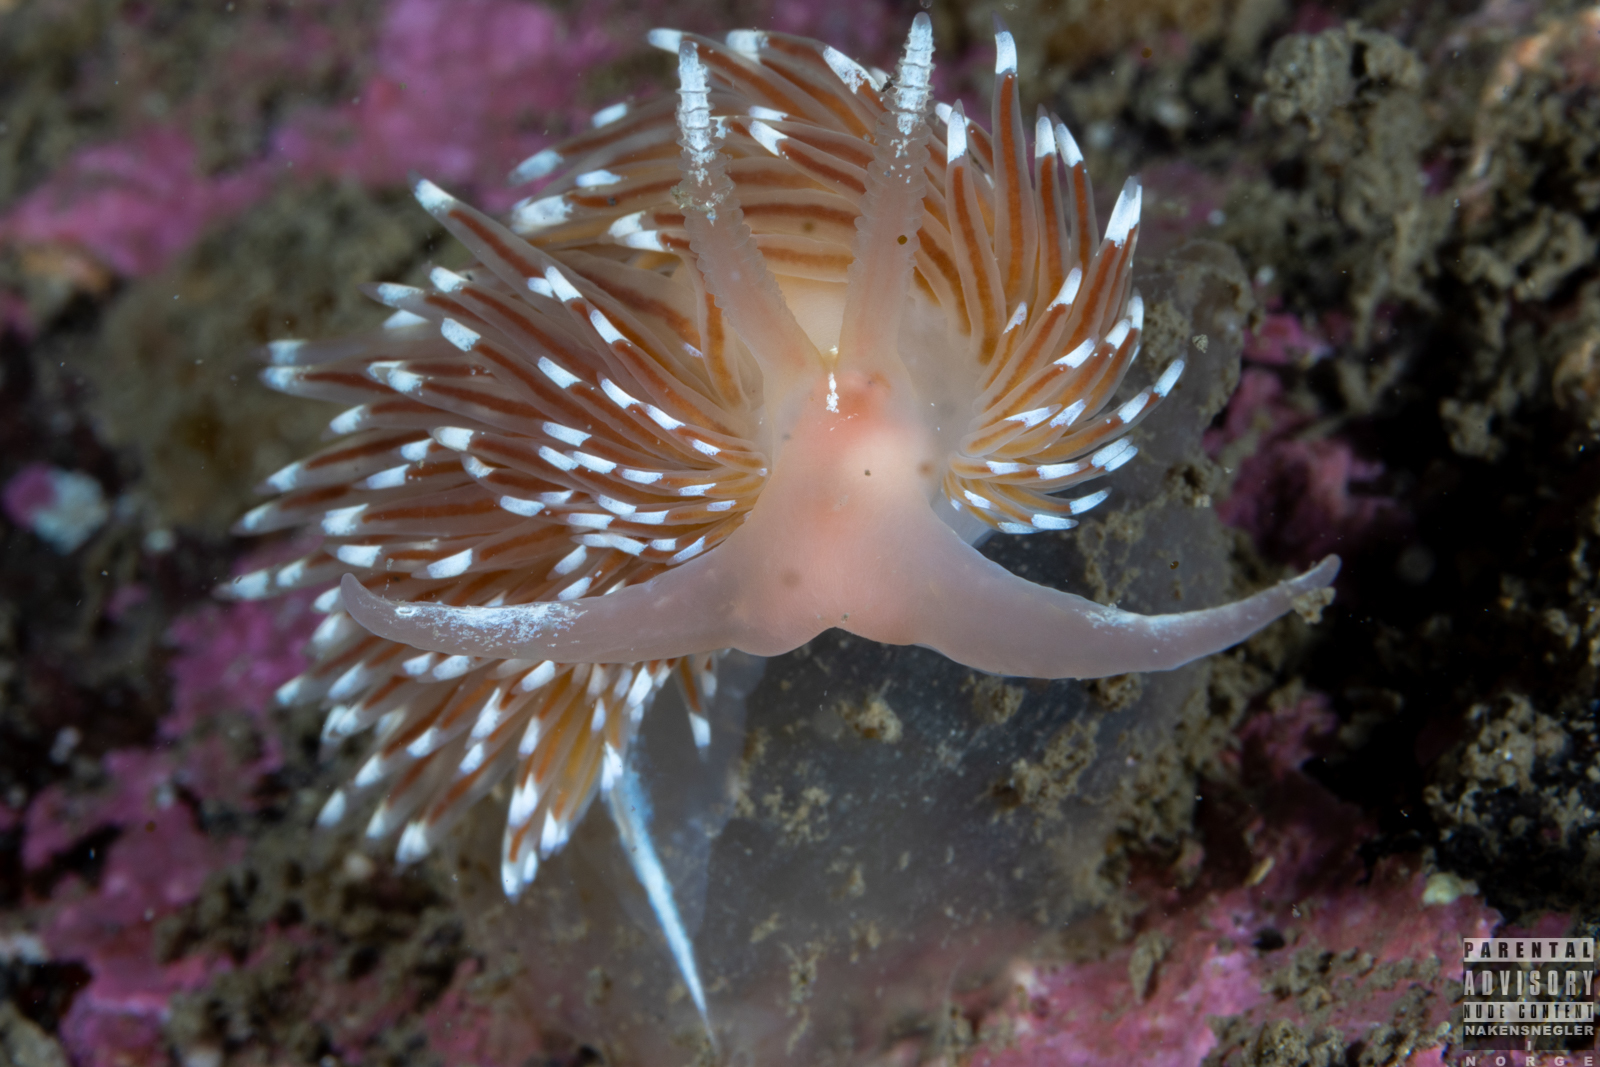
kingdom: Animalia
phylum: Mollusca
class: Gastropoda
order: Nudibranchia
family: Facelinidae
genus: Facelina
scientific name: Facelina bostoniensis
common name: Boston facelina
